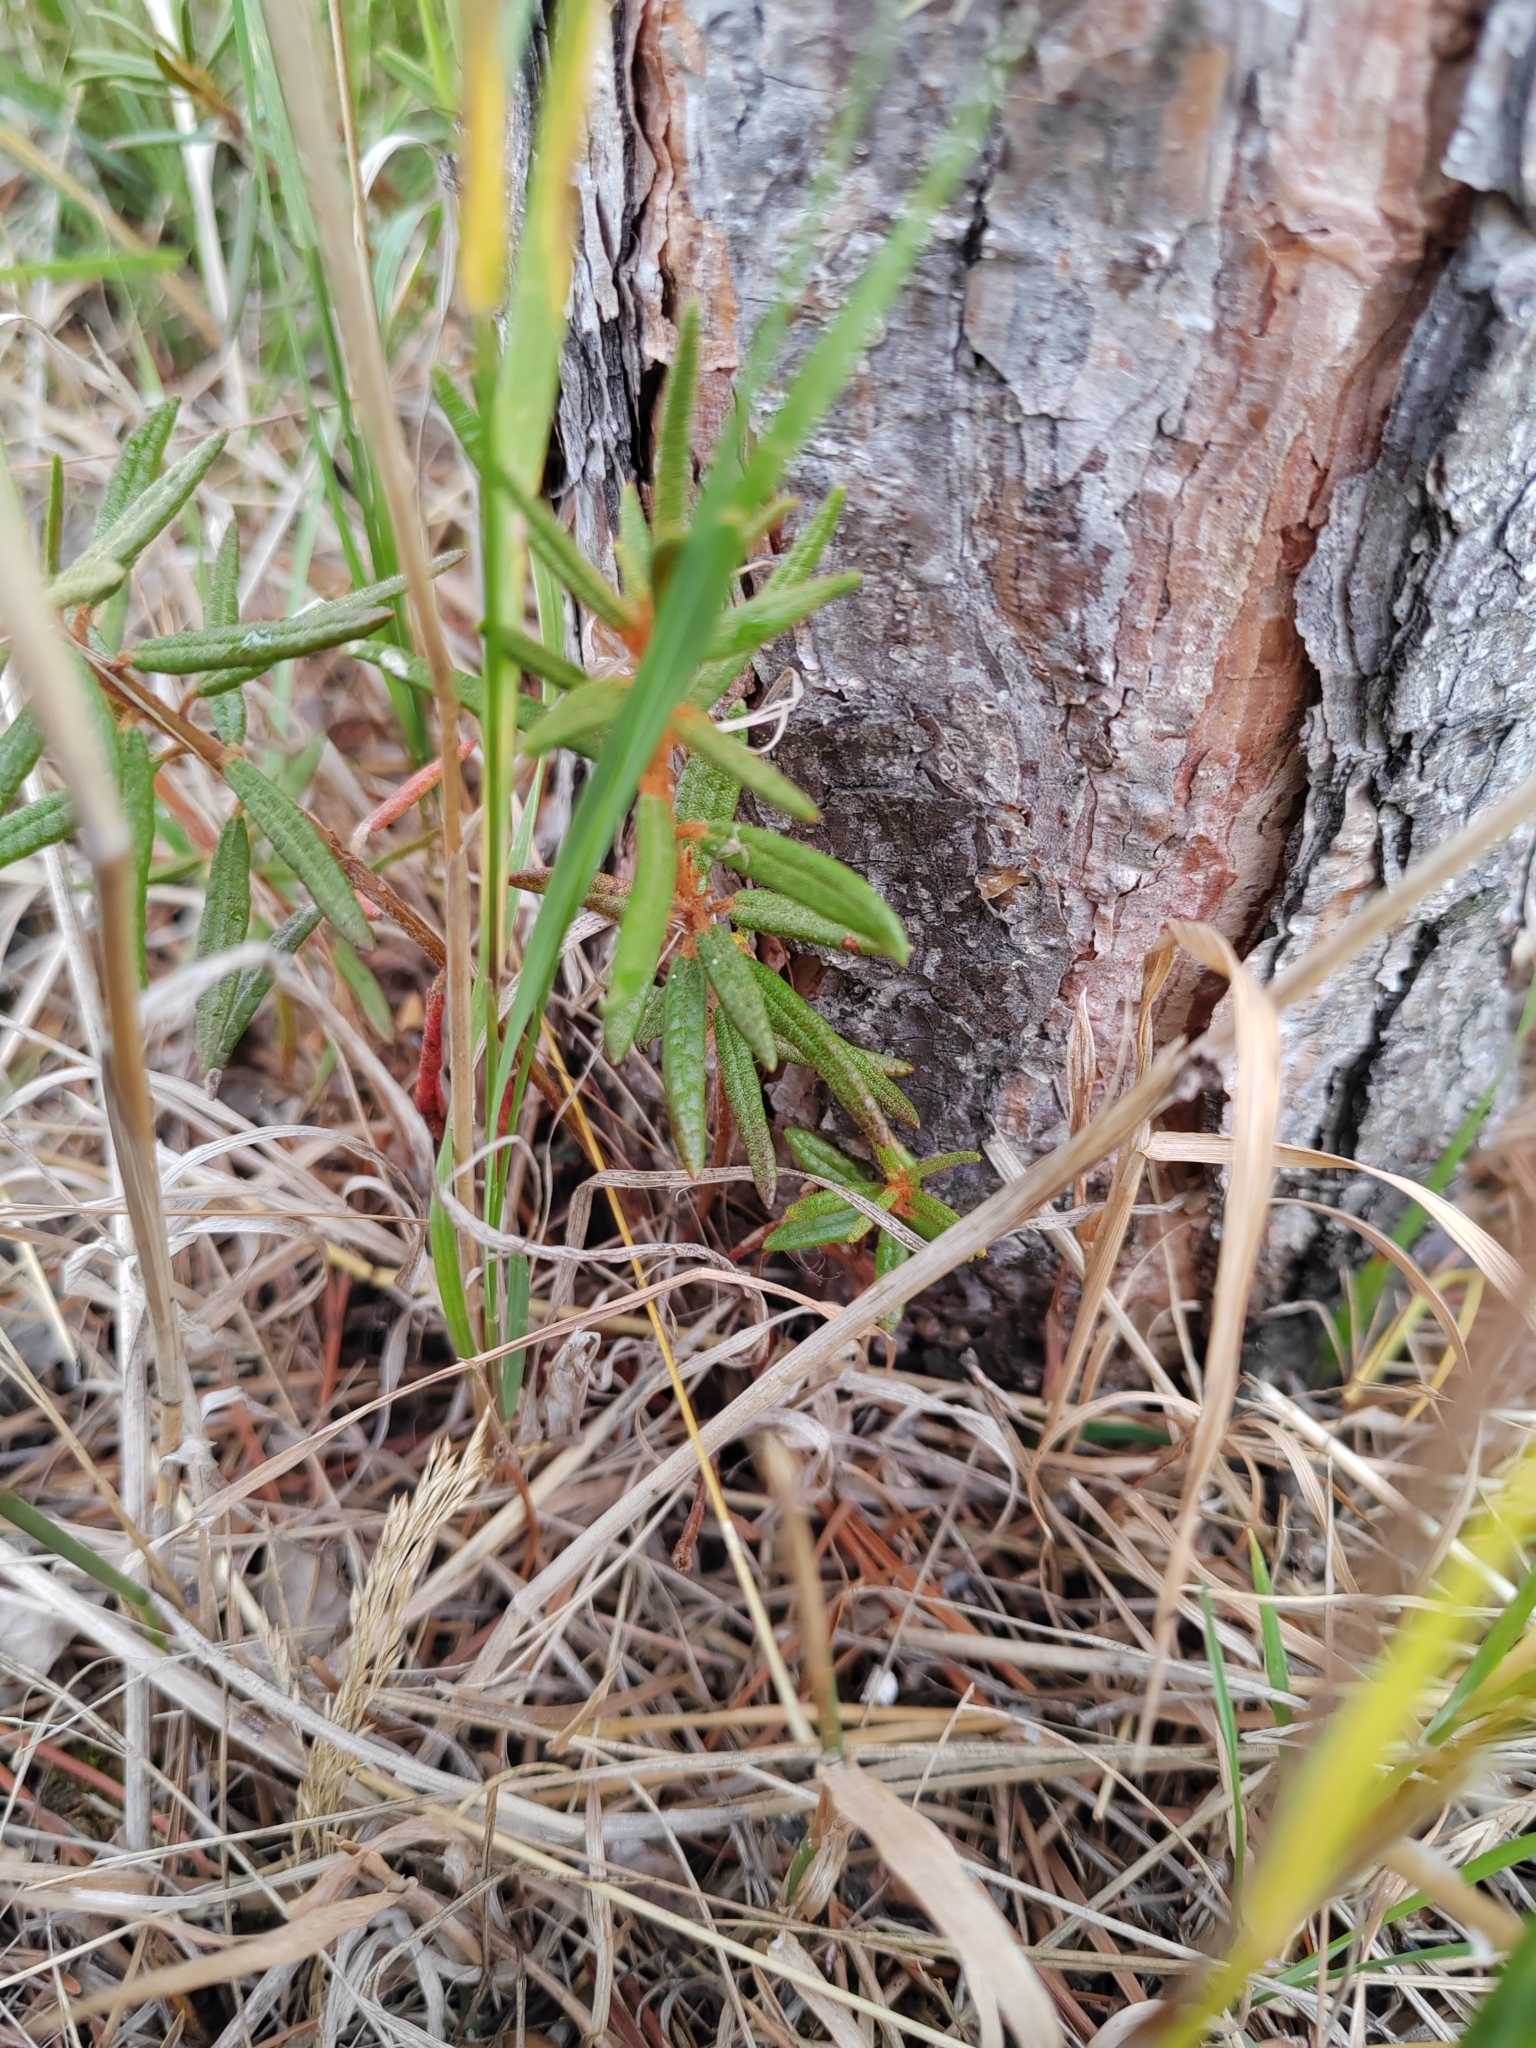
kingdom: Plantae
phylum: Tracheophyta
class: Magnoliopsida
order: Ericales
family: Ericaceae
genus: Rhododendron
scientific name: Rhododendron tomentosum
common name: Marsh labrador tea
